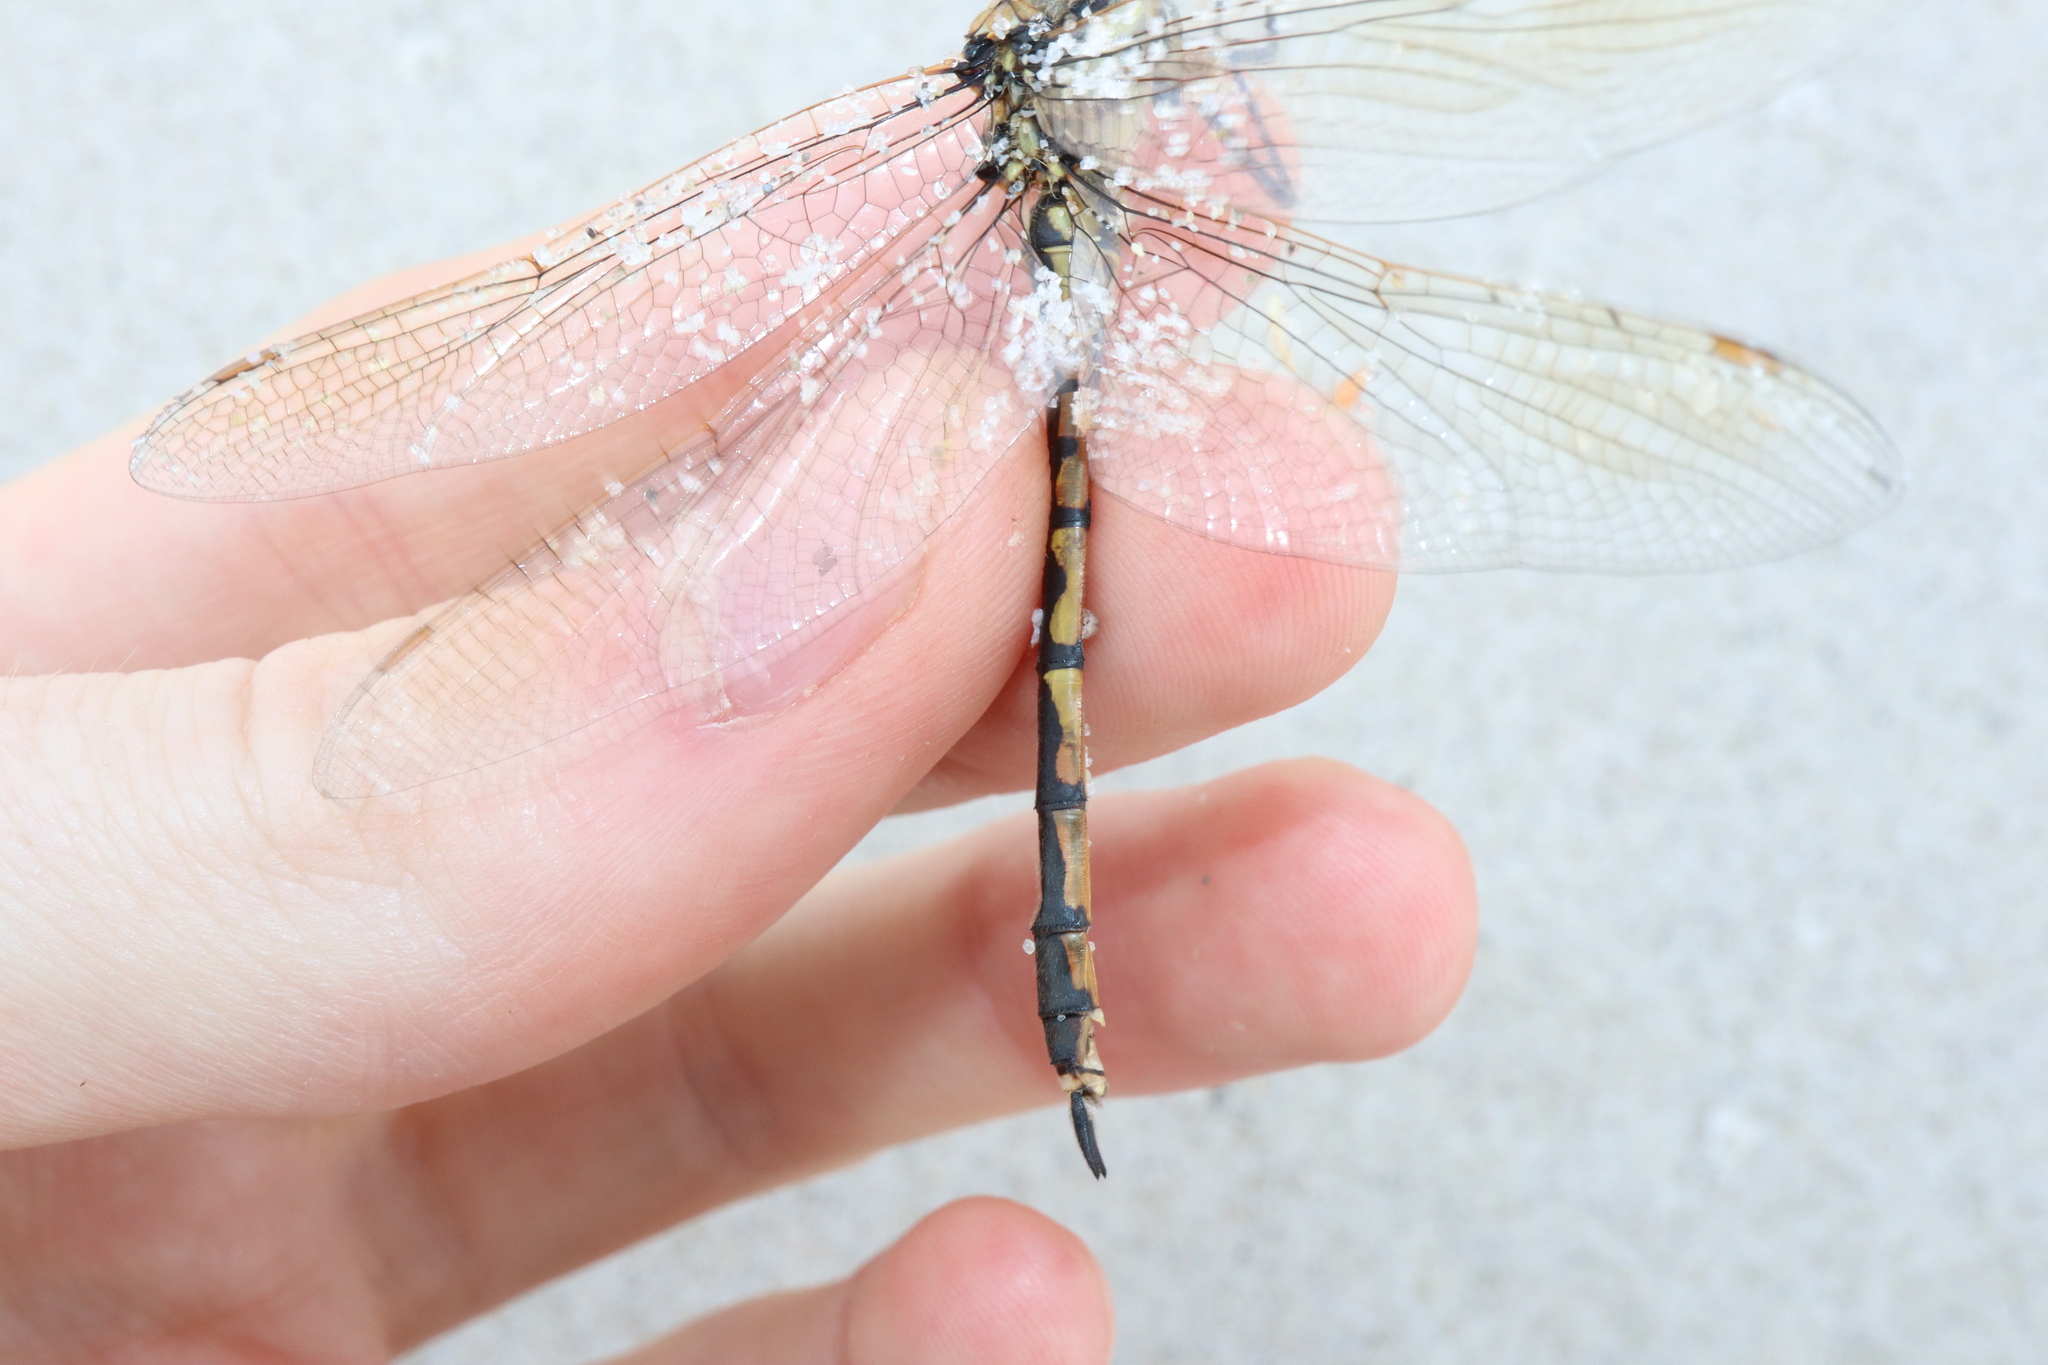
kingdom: Animalia
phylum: Arthropoda
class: Insecta
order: Odonata
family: Corduliidae
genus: Hemicordulia
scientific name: Hemicordulia tau
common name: Tau emerald
